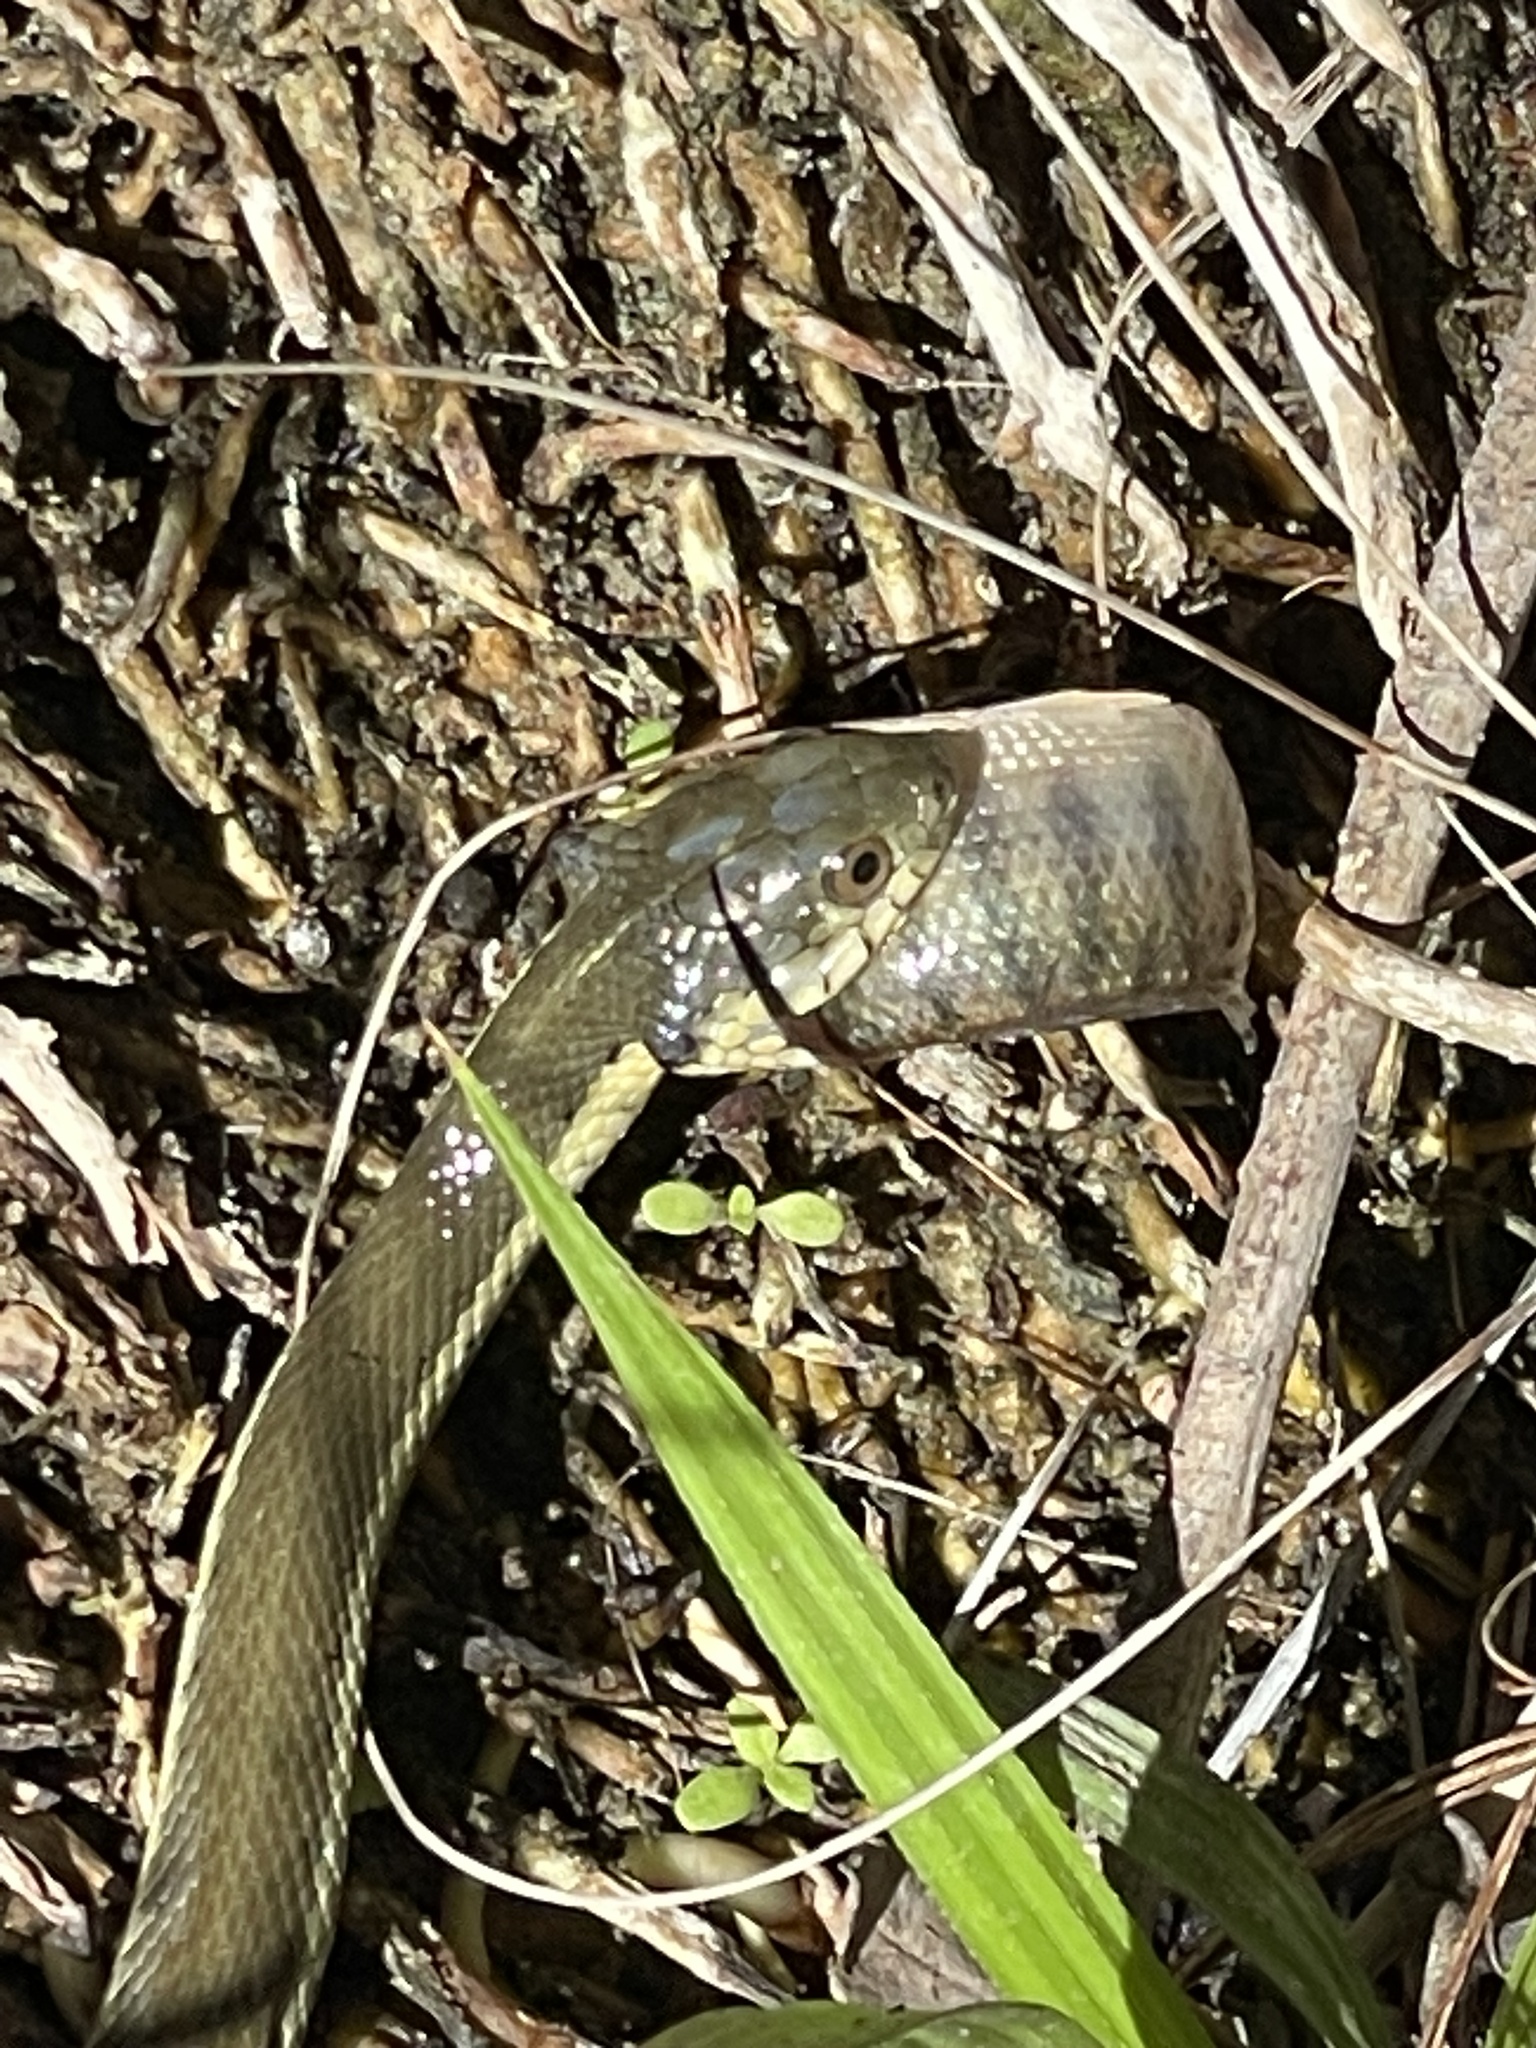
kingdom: Animalia
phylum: Chordata
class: Squamata
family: Colubridae
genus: Thamnophis
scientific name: Thamnophis hammondii
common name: Two-striped garter snake
